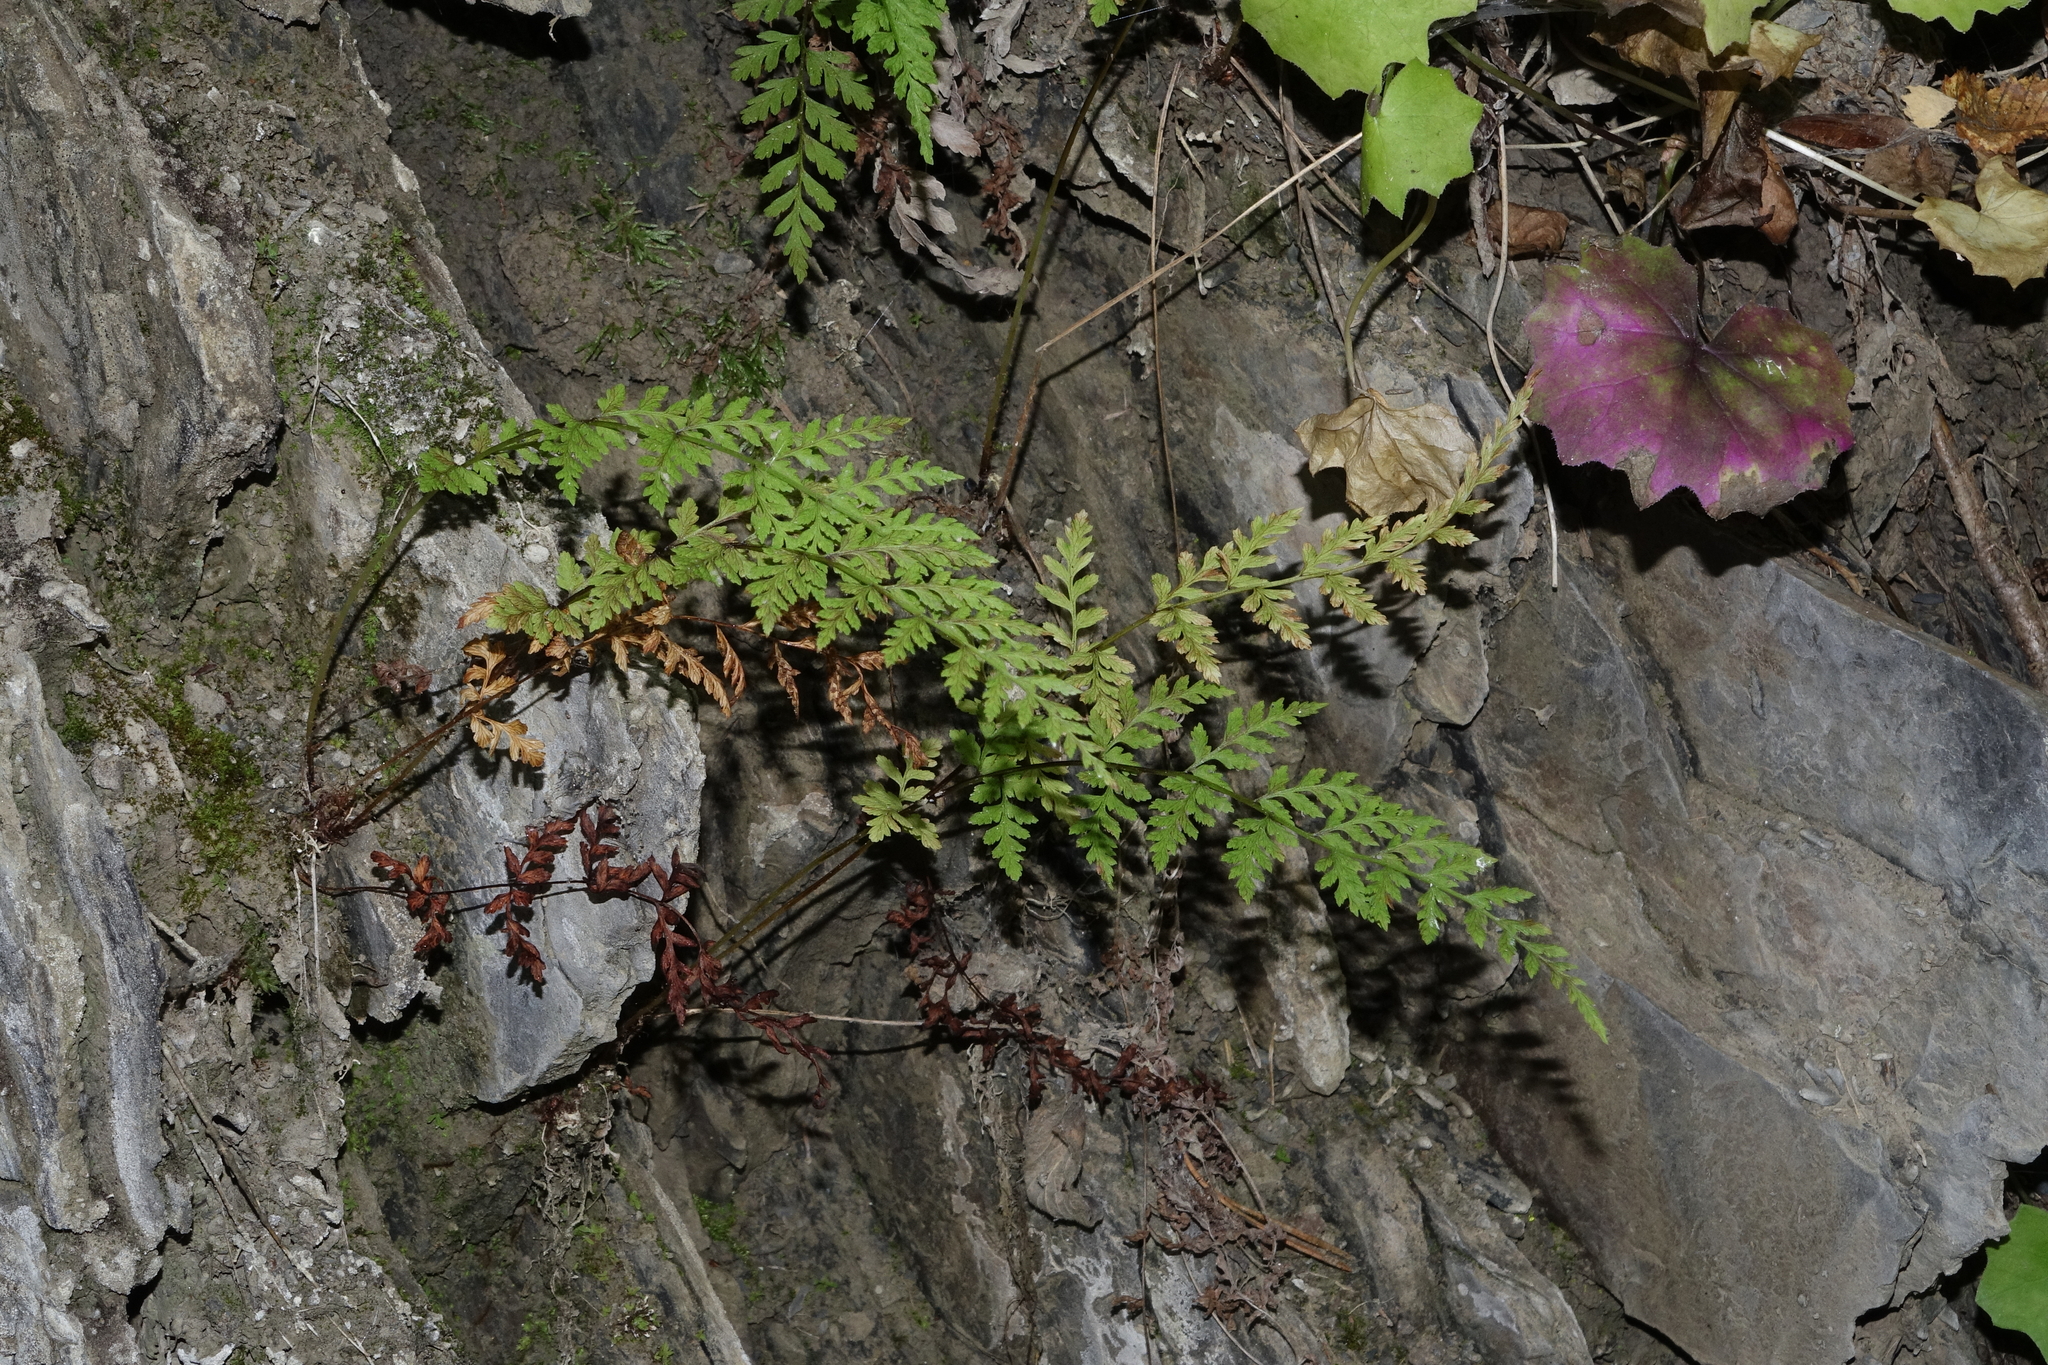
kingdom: Plantae
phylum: Tracheophyta
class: Polypodiopsida
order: Polypodiales
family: Cystopteridaceae
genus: Cystopteris
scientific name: Cystopteris fragilis
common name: Brittle bladder fern
